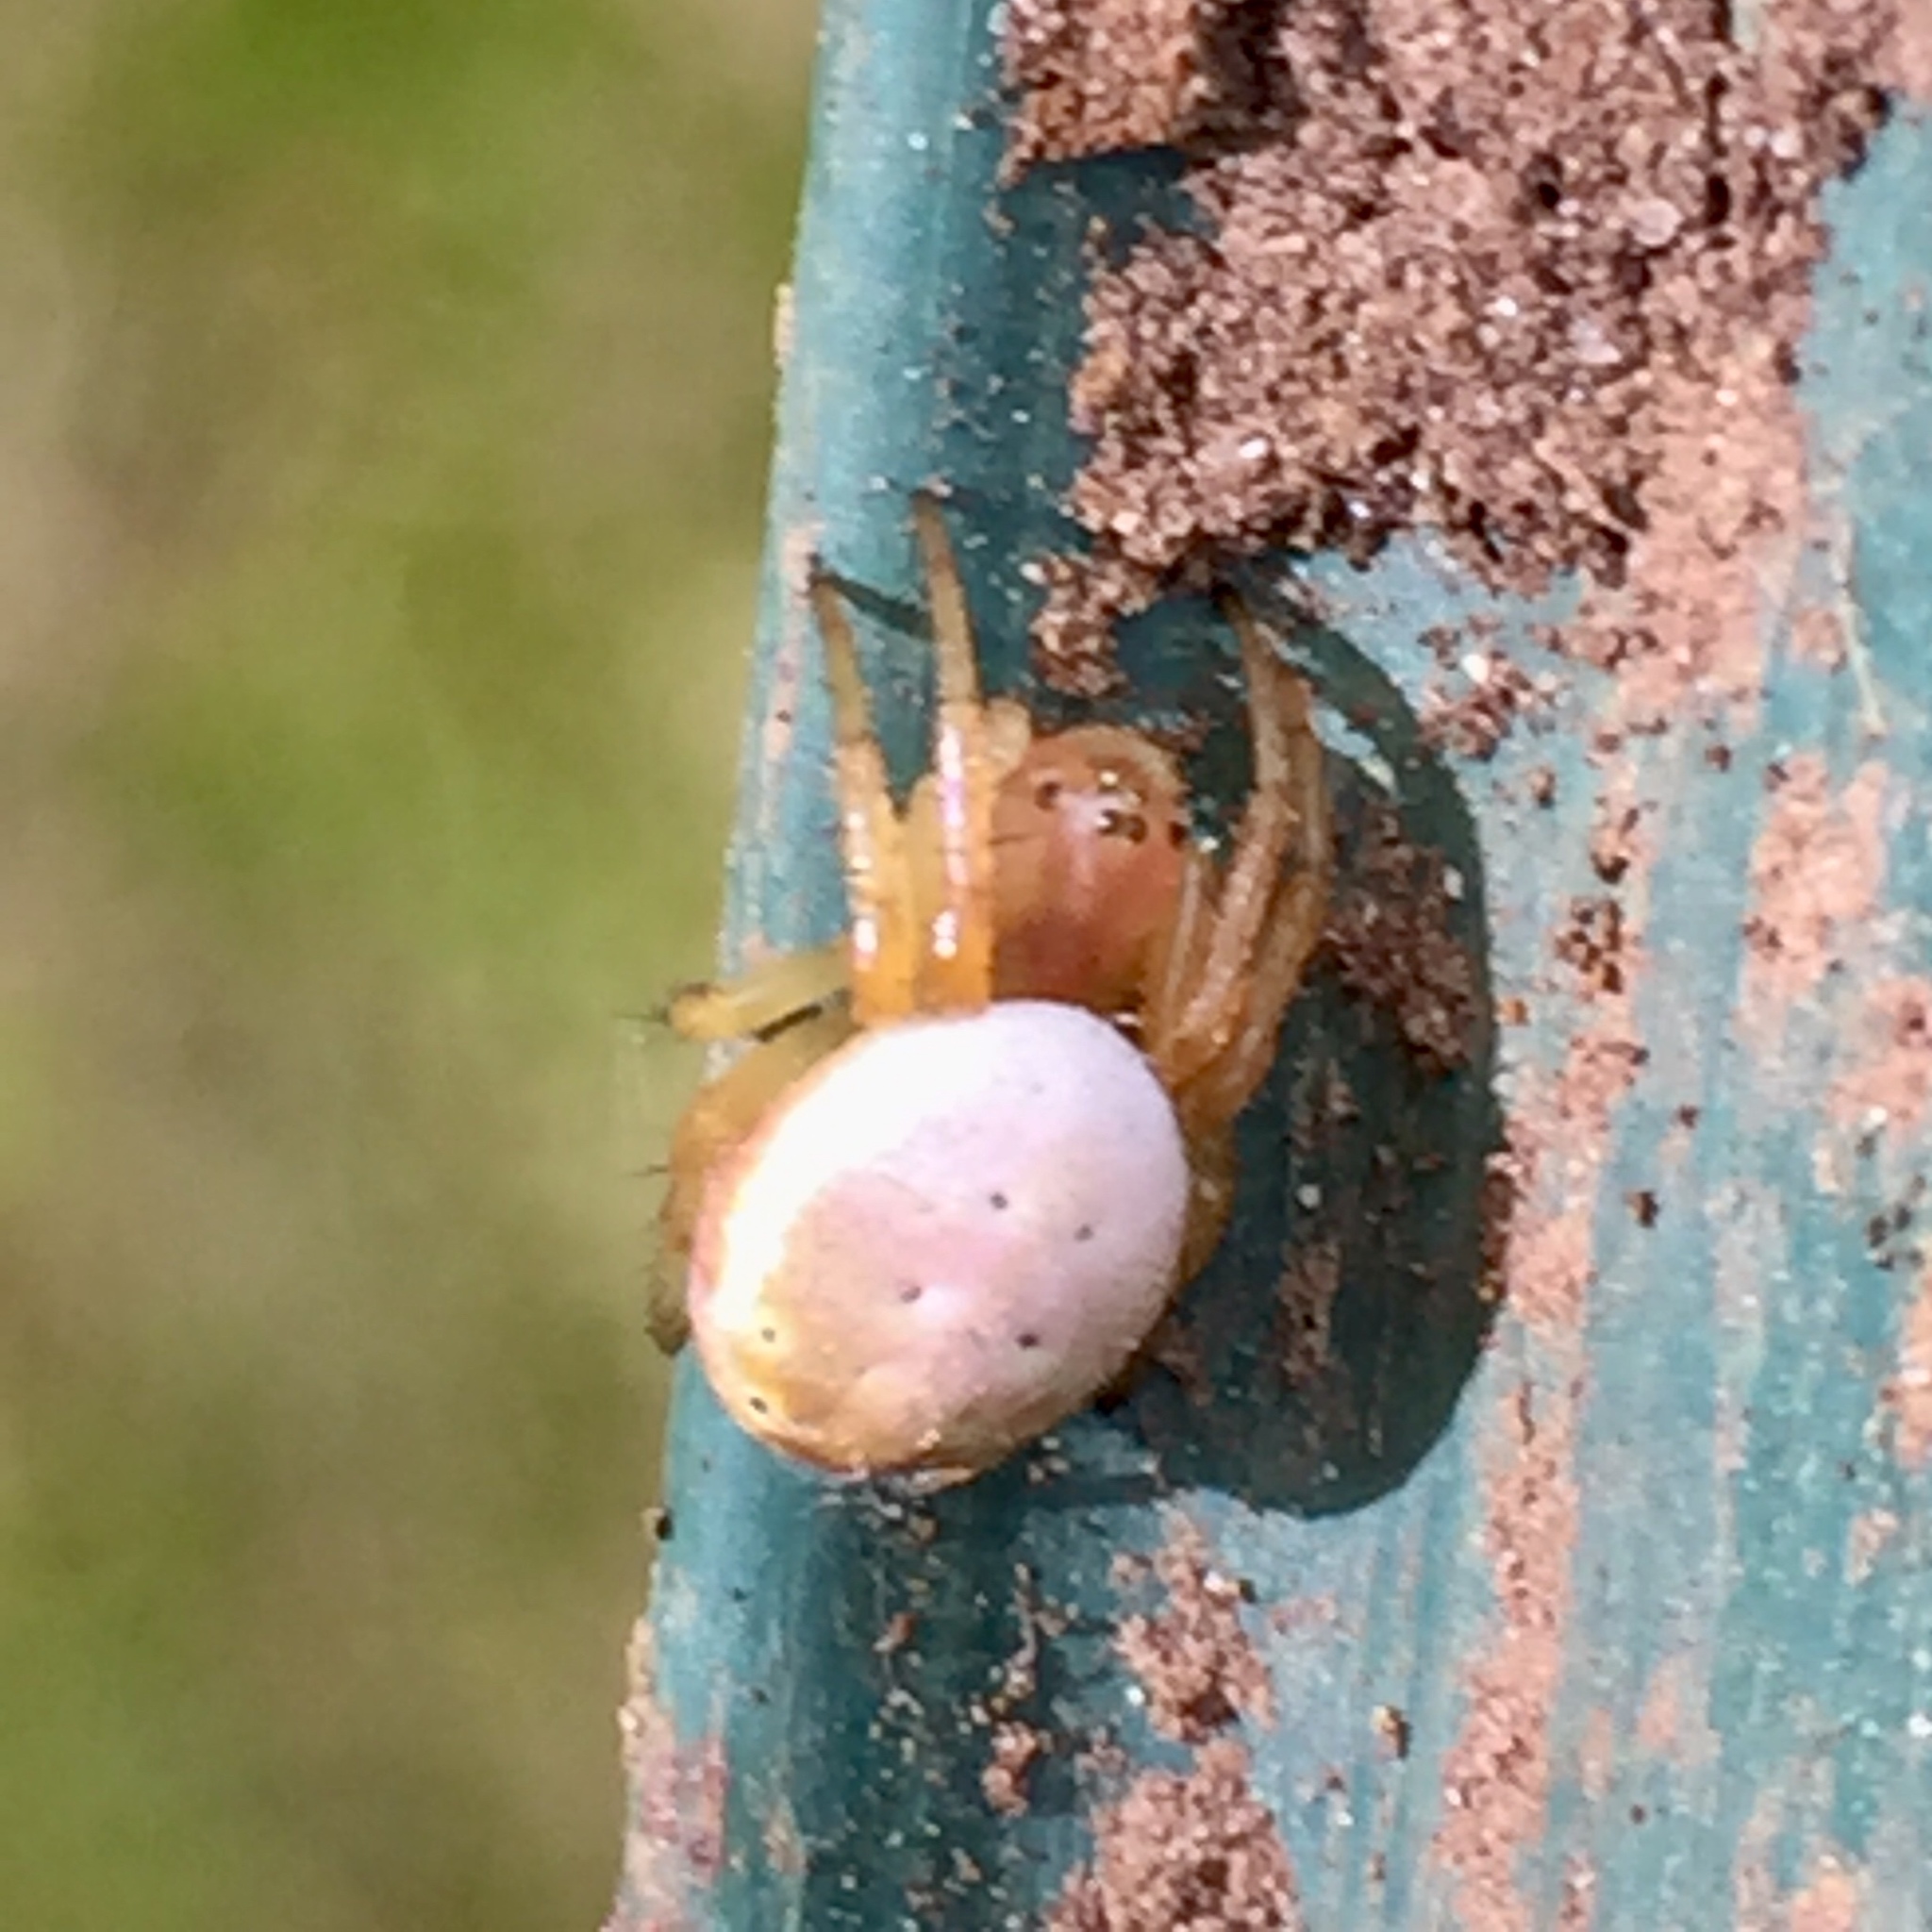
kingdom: Animalia
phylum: Arthropoda
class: Arachnida
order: Araneae
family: Araneidae
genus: Araniella
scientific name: Araniella displicata
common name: Sixspotted orb weaver
